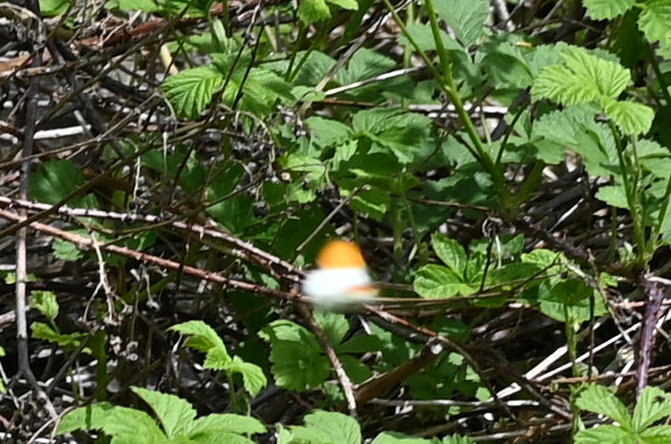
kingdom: Animalia
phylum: Arthropoda
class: Insecta
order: Lepidoptera
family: Pieridae
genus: Anthocharis
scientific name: Anthocharis cardamines
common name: Orange-tip
